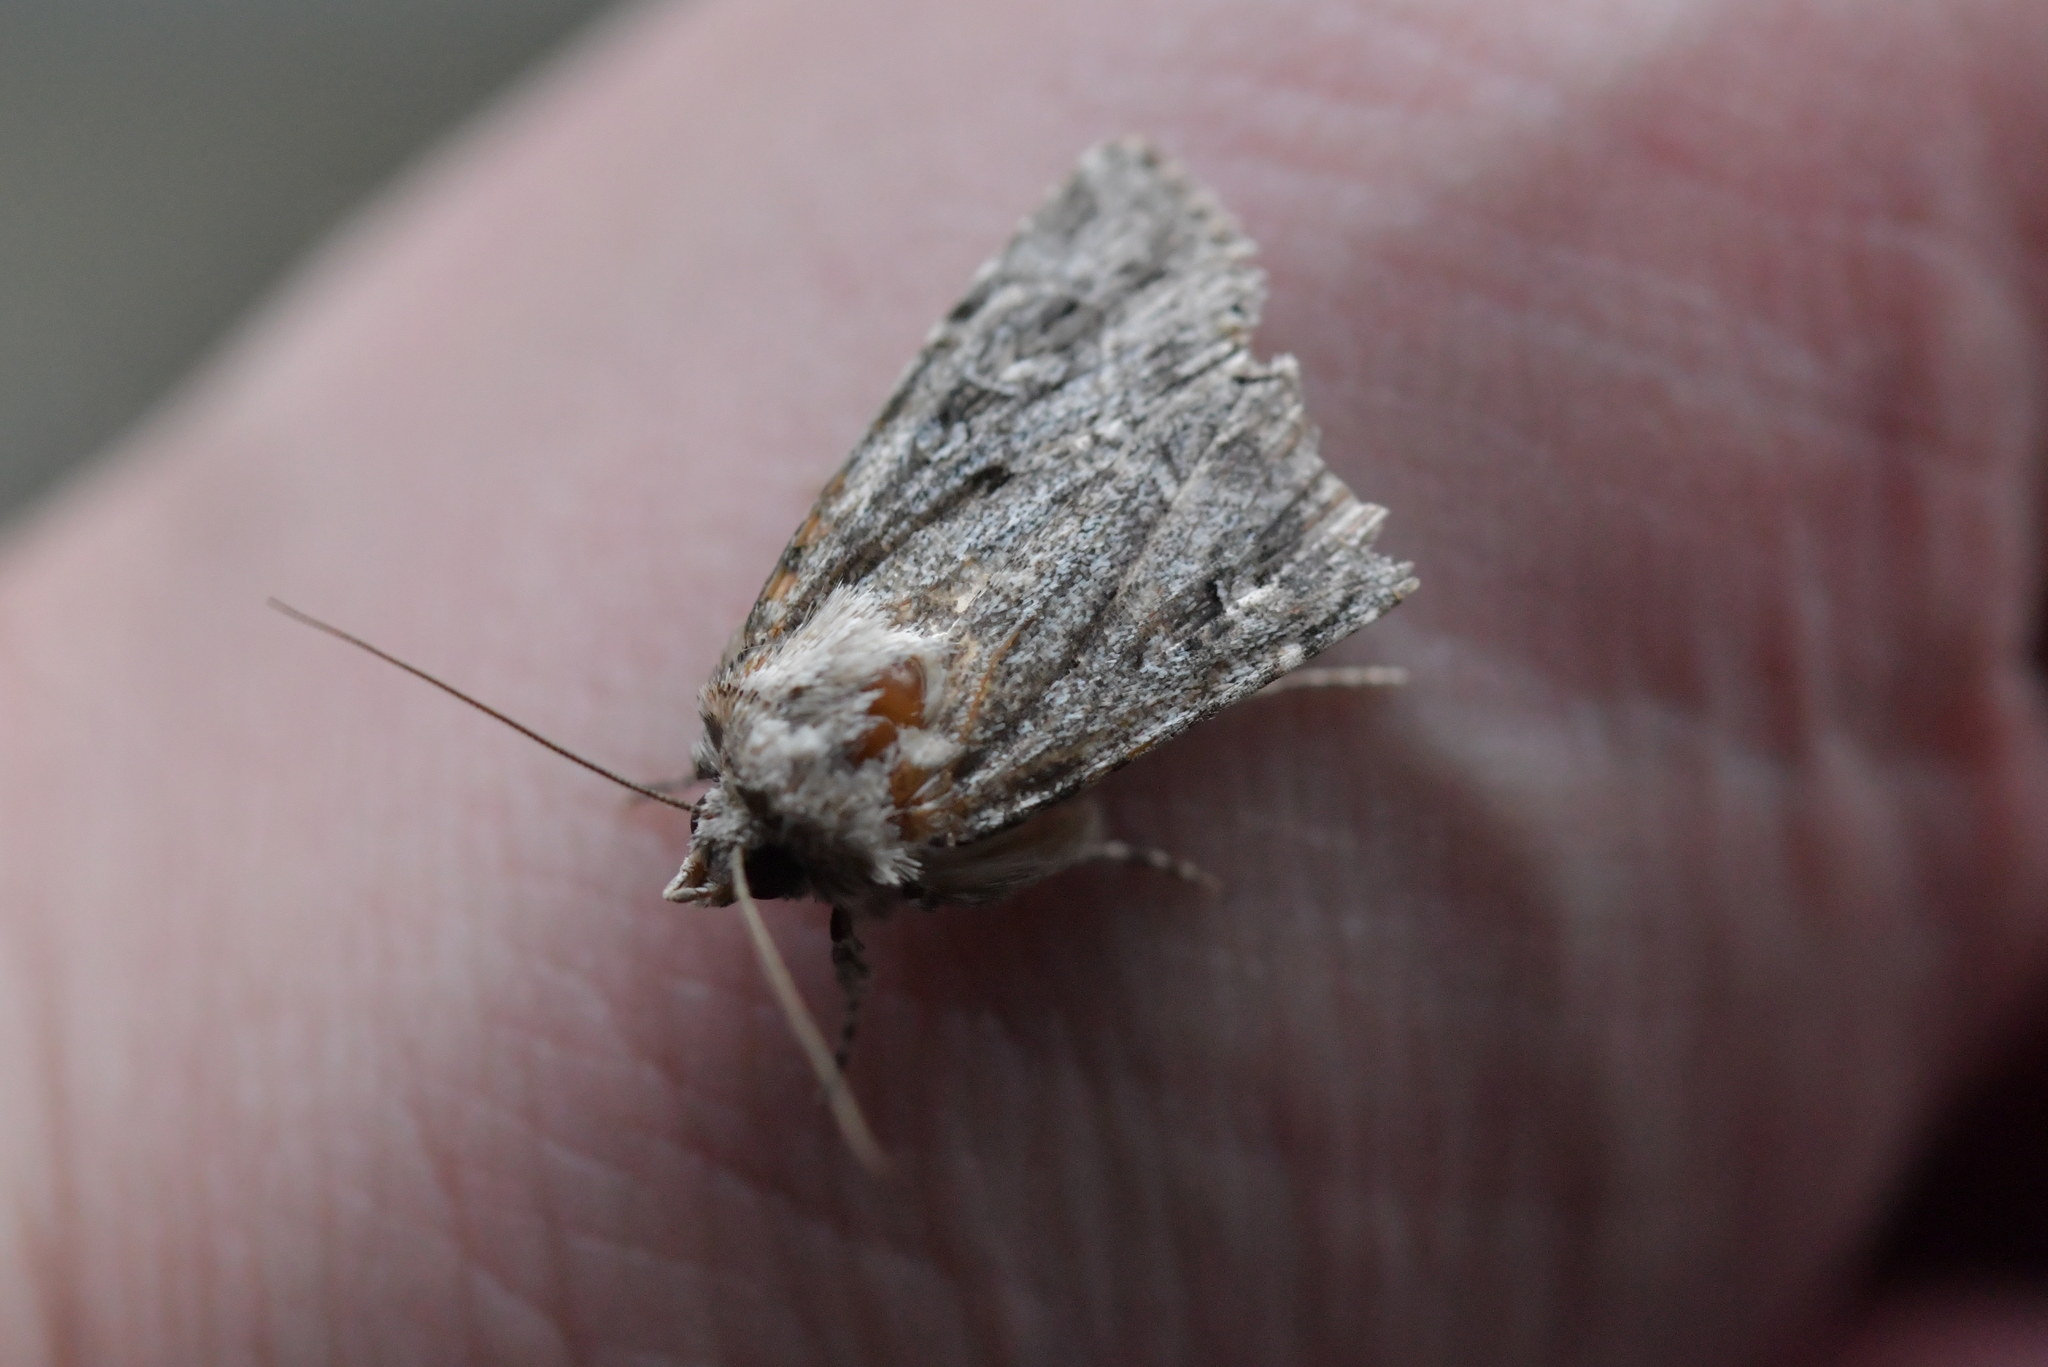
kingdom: Animalia
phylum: Arthropoda
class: Insecta
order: Lepidoptera
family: Noctuidae
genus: Ectopatria
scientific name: Ectopatria aspera
